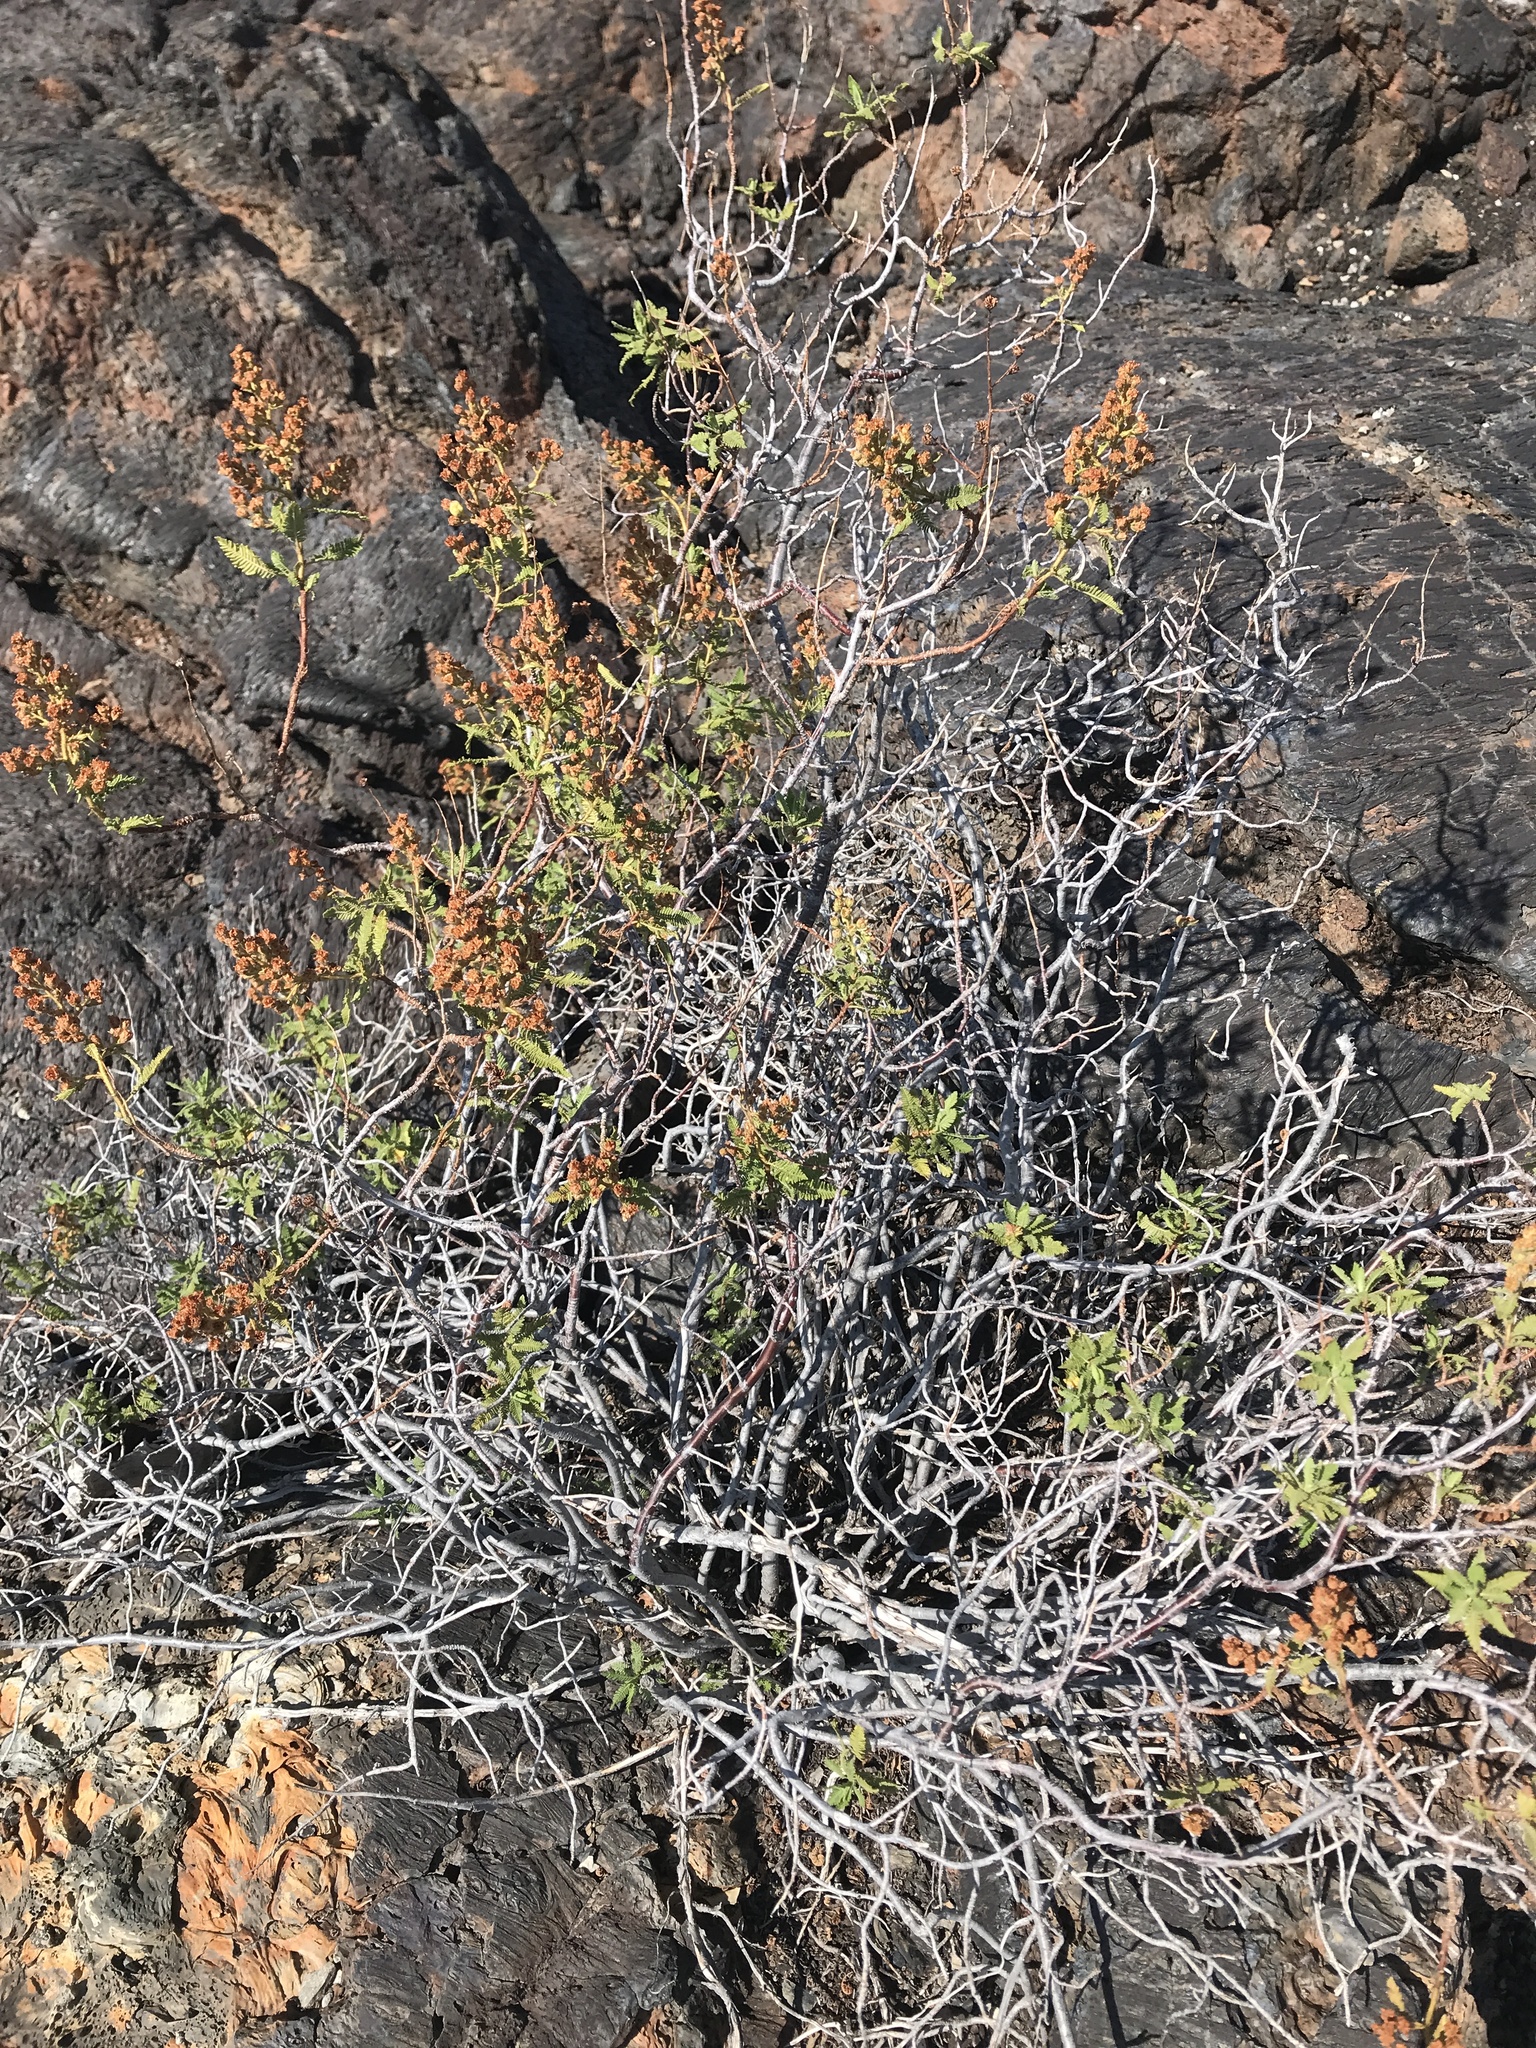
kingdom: Plantae
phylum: Tracheophyta
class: Magnoliopsida
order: Rosales
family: Rosaceae
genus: Chamaebatiaria
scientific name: Chamaebatiaria millefolium
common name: Fernbush
